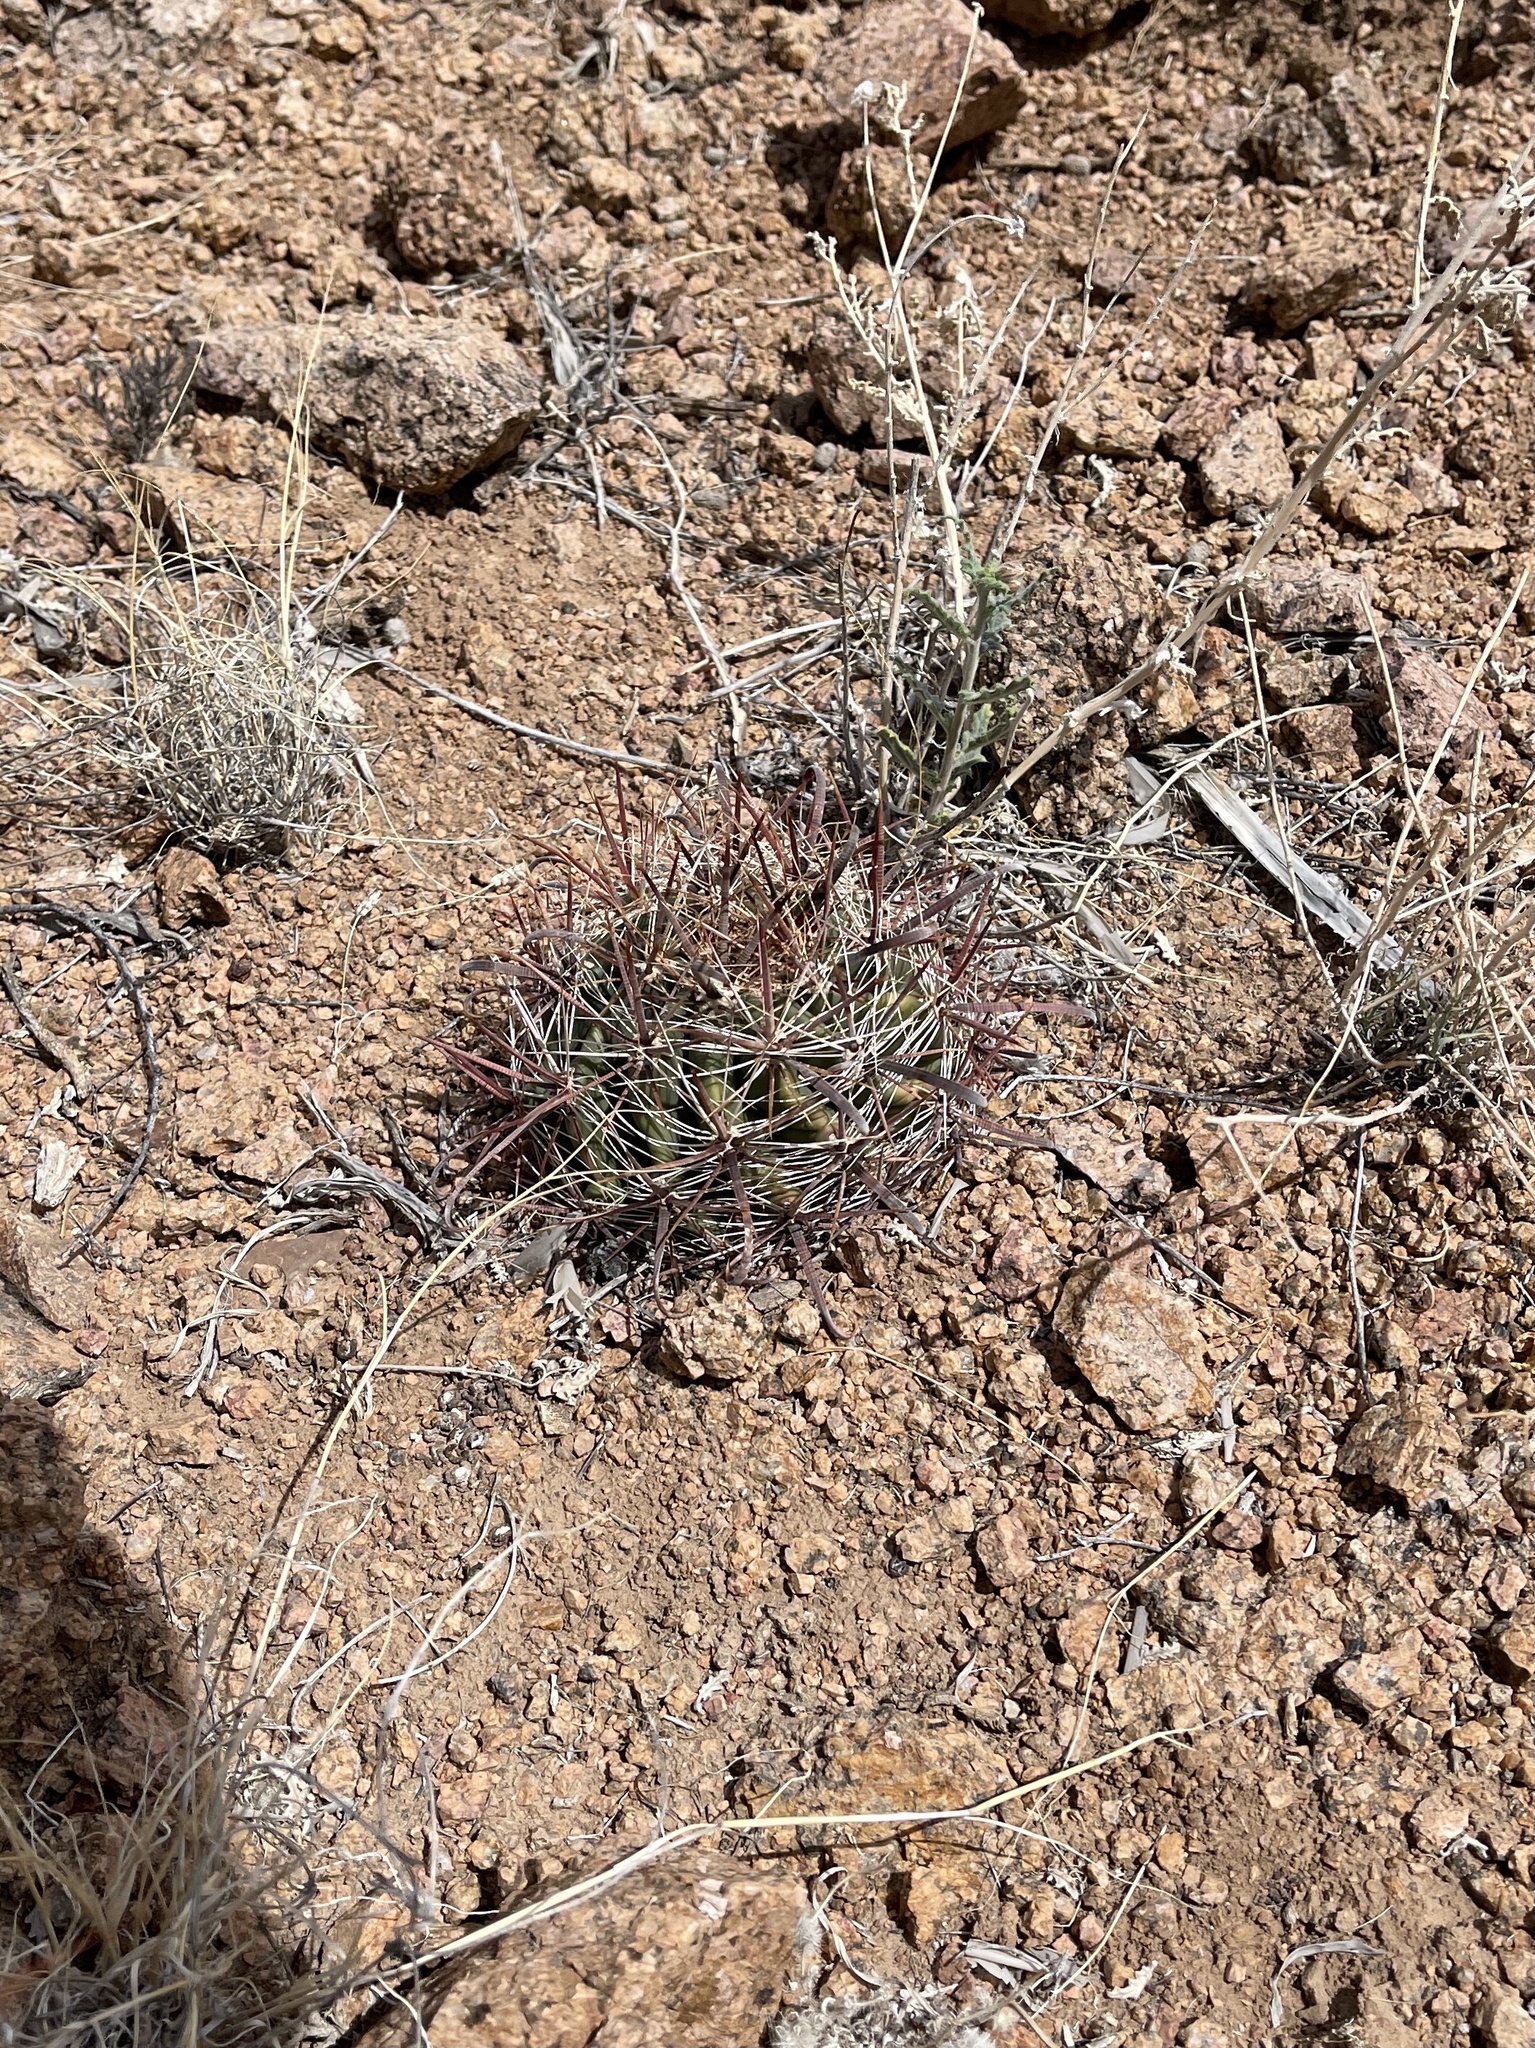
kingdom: Plantae
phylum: Tracheophyta
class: Magnoliopsida
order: Caryophyllales
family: Cactaceae
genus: Ferocactus
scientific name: Ferocactus wislizeni
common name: Candy barrel cactus
